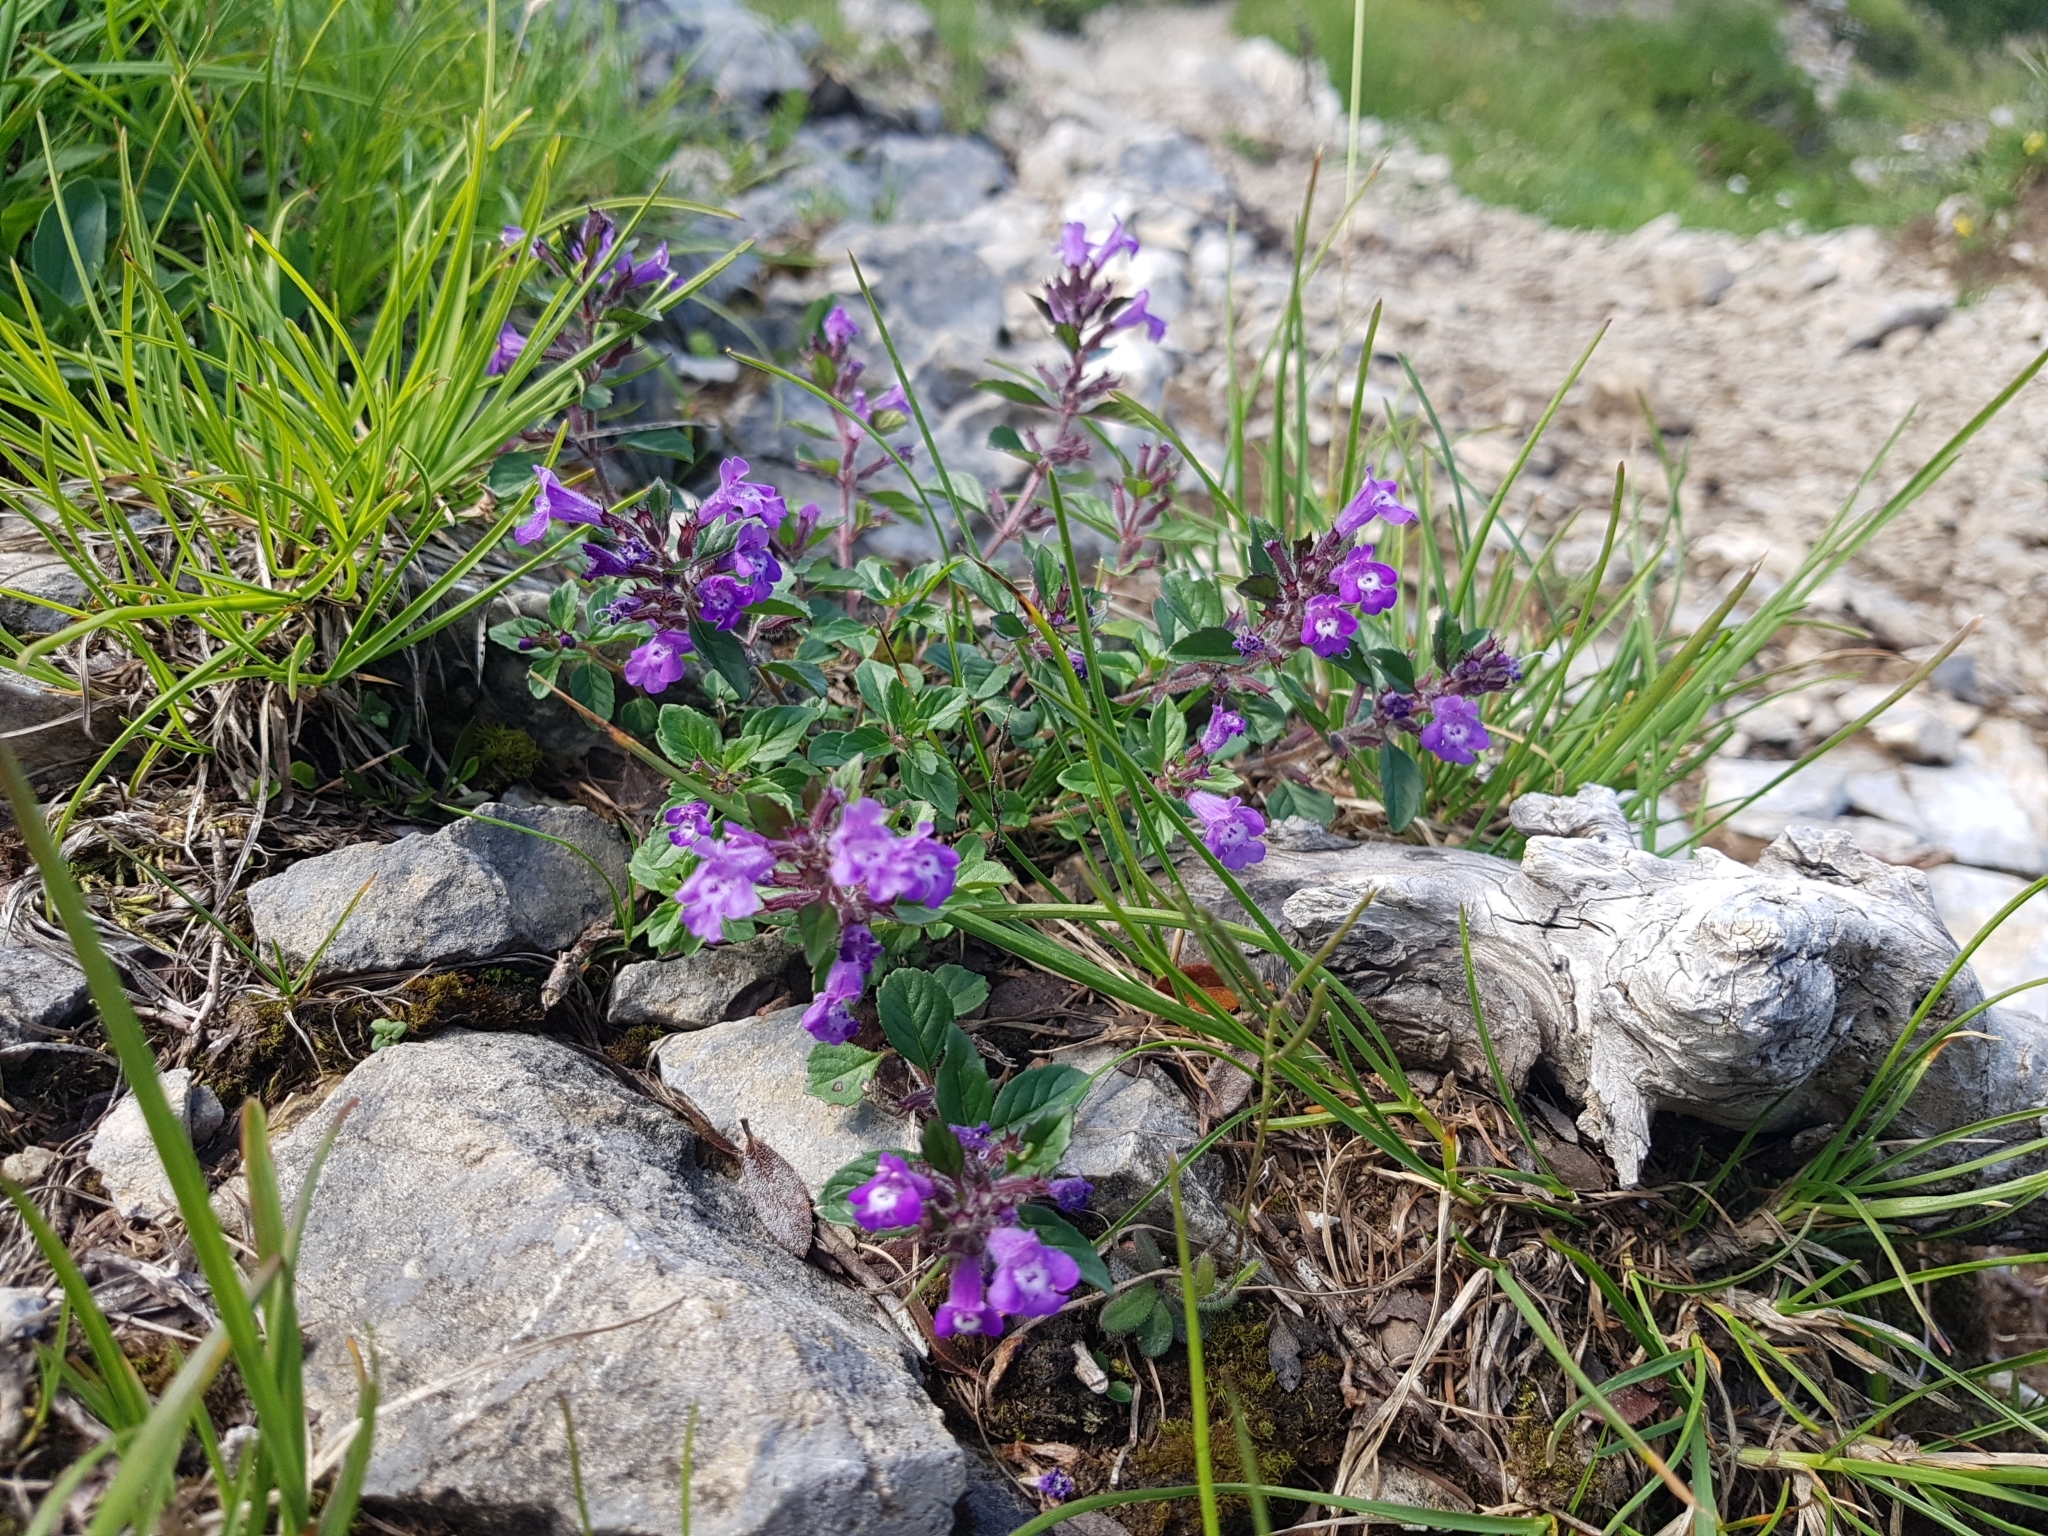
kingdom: Plantae
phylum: Tracheophyta
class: Magnoliopsida
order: Lamiales
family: Lamiaceae
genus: Clinopodium
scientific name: Clinopodium alpinum
